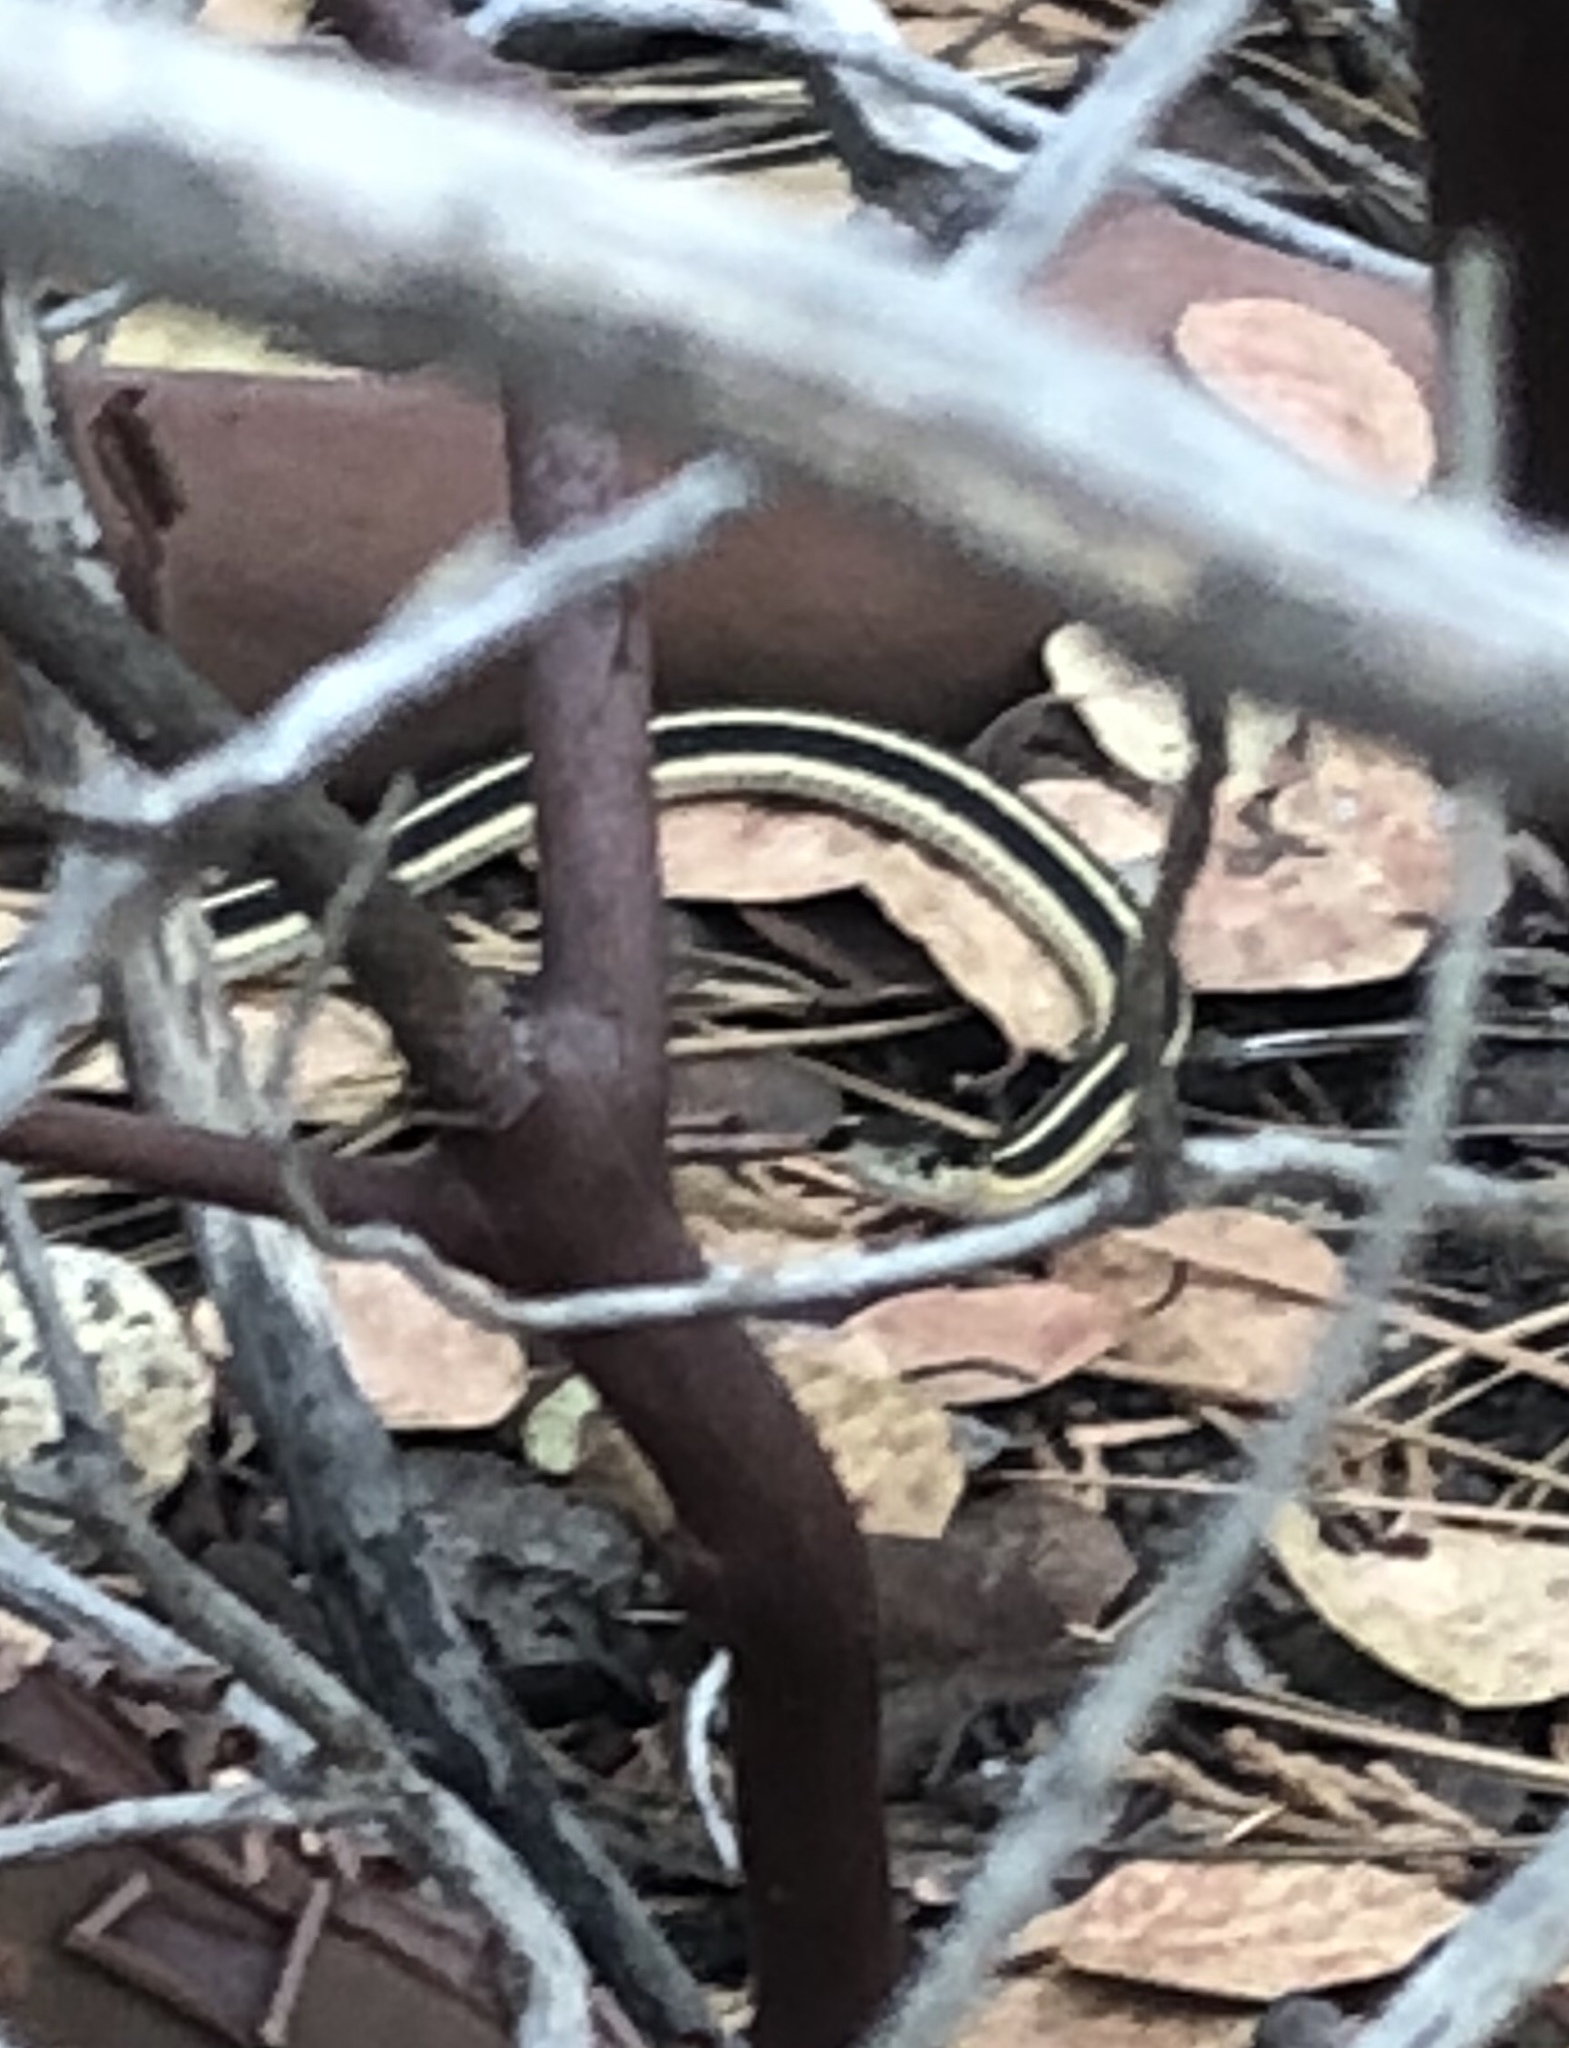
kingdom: Animalia
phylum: Chordata
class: Squamata
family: Colubridae
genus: Thamnophis
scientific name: Thamnophis elegans
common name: Western terrestrial garter snake
